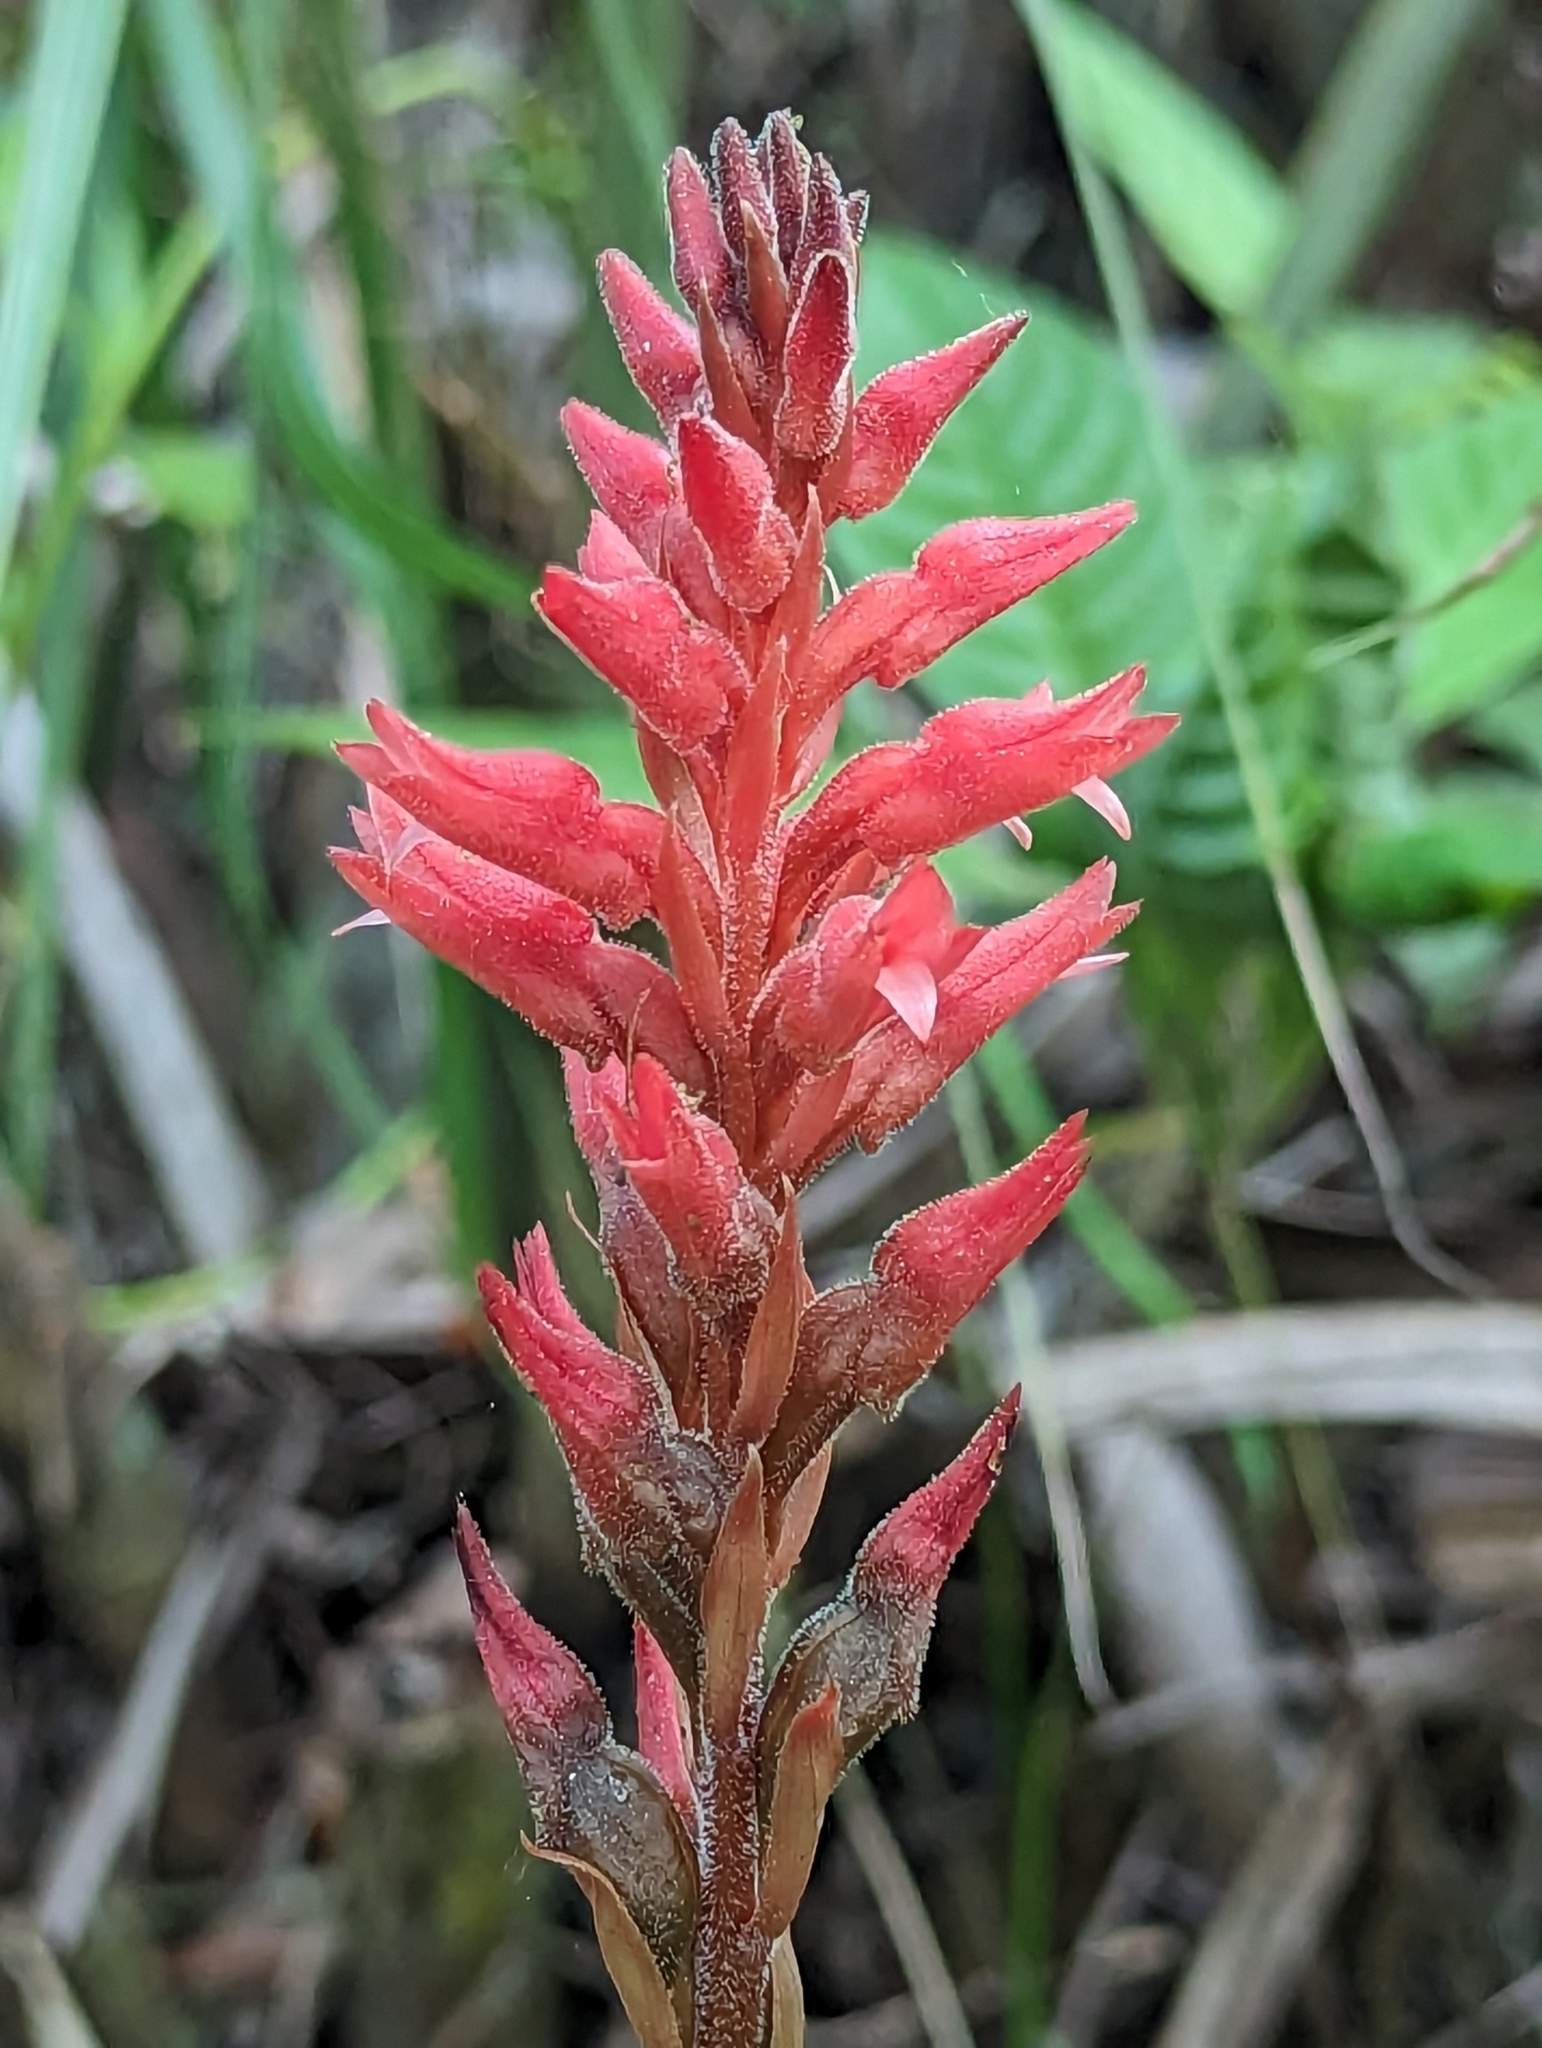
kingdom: Plantae
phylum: Tracheophyta
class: Liliopsida
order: Asparagales
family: Orchidaceae
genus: Sacoila
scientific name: Sacoila lanceolata
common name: Leafless beaked ladiestresses
